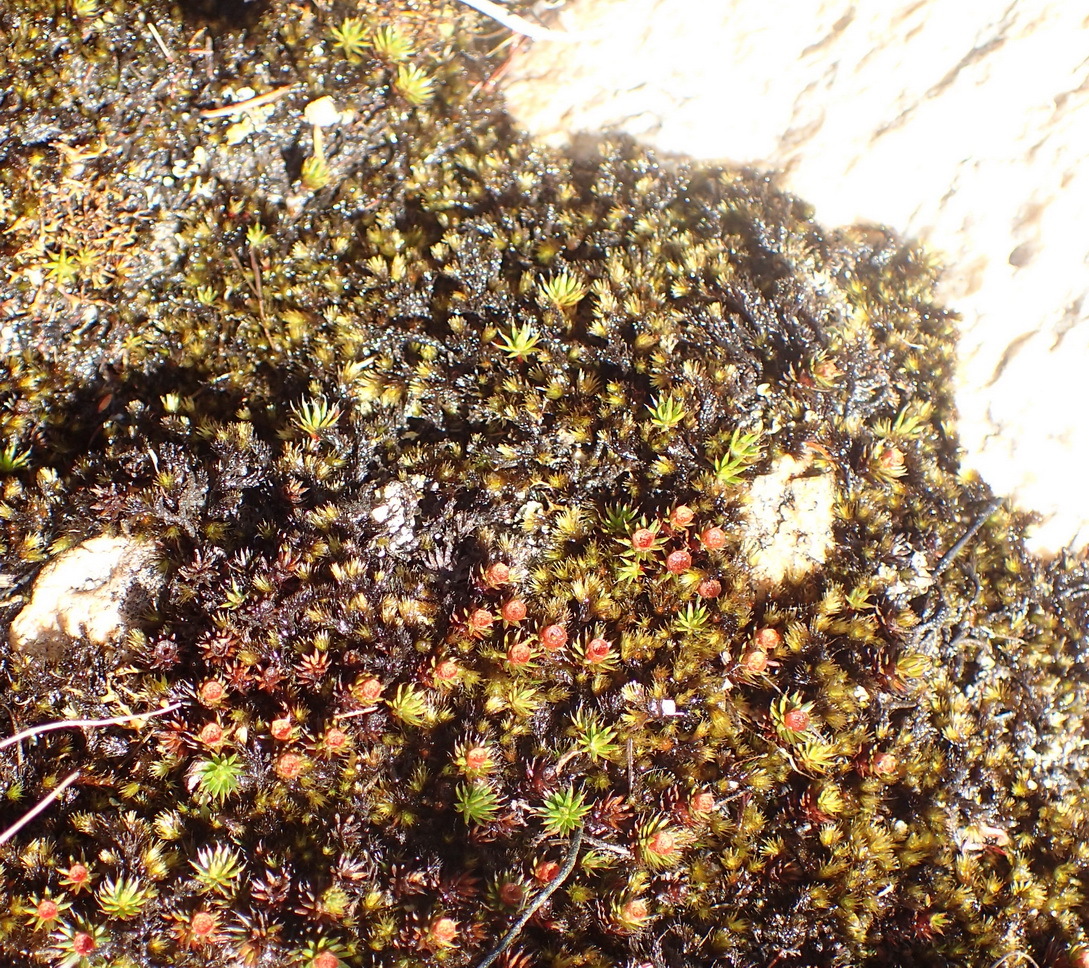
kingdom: Plantae
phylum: Bryophyta
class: Polytrichopsida
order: Polytrichales
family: Polytrichaceae
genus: Polytrichum
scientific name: Polytrichum piliferum
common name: Bristly haircap
